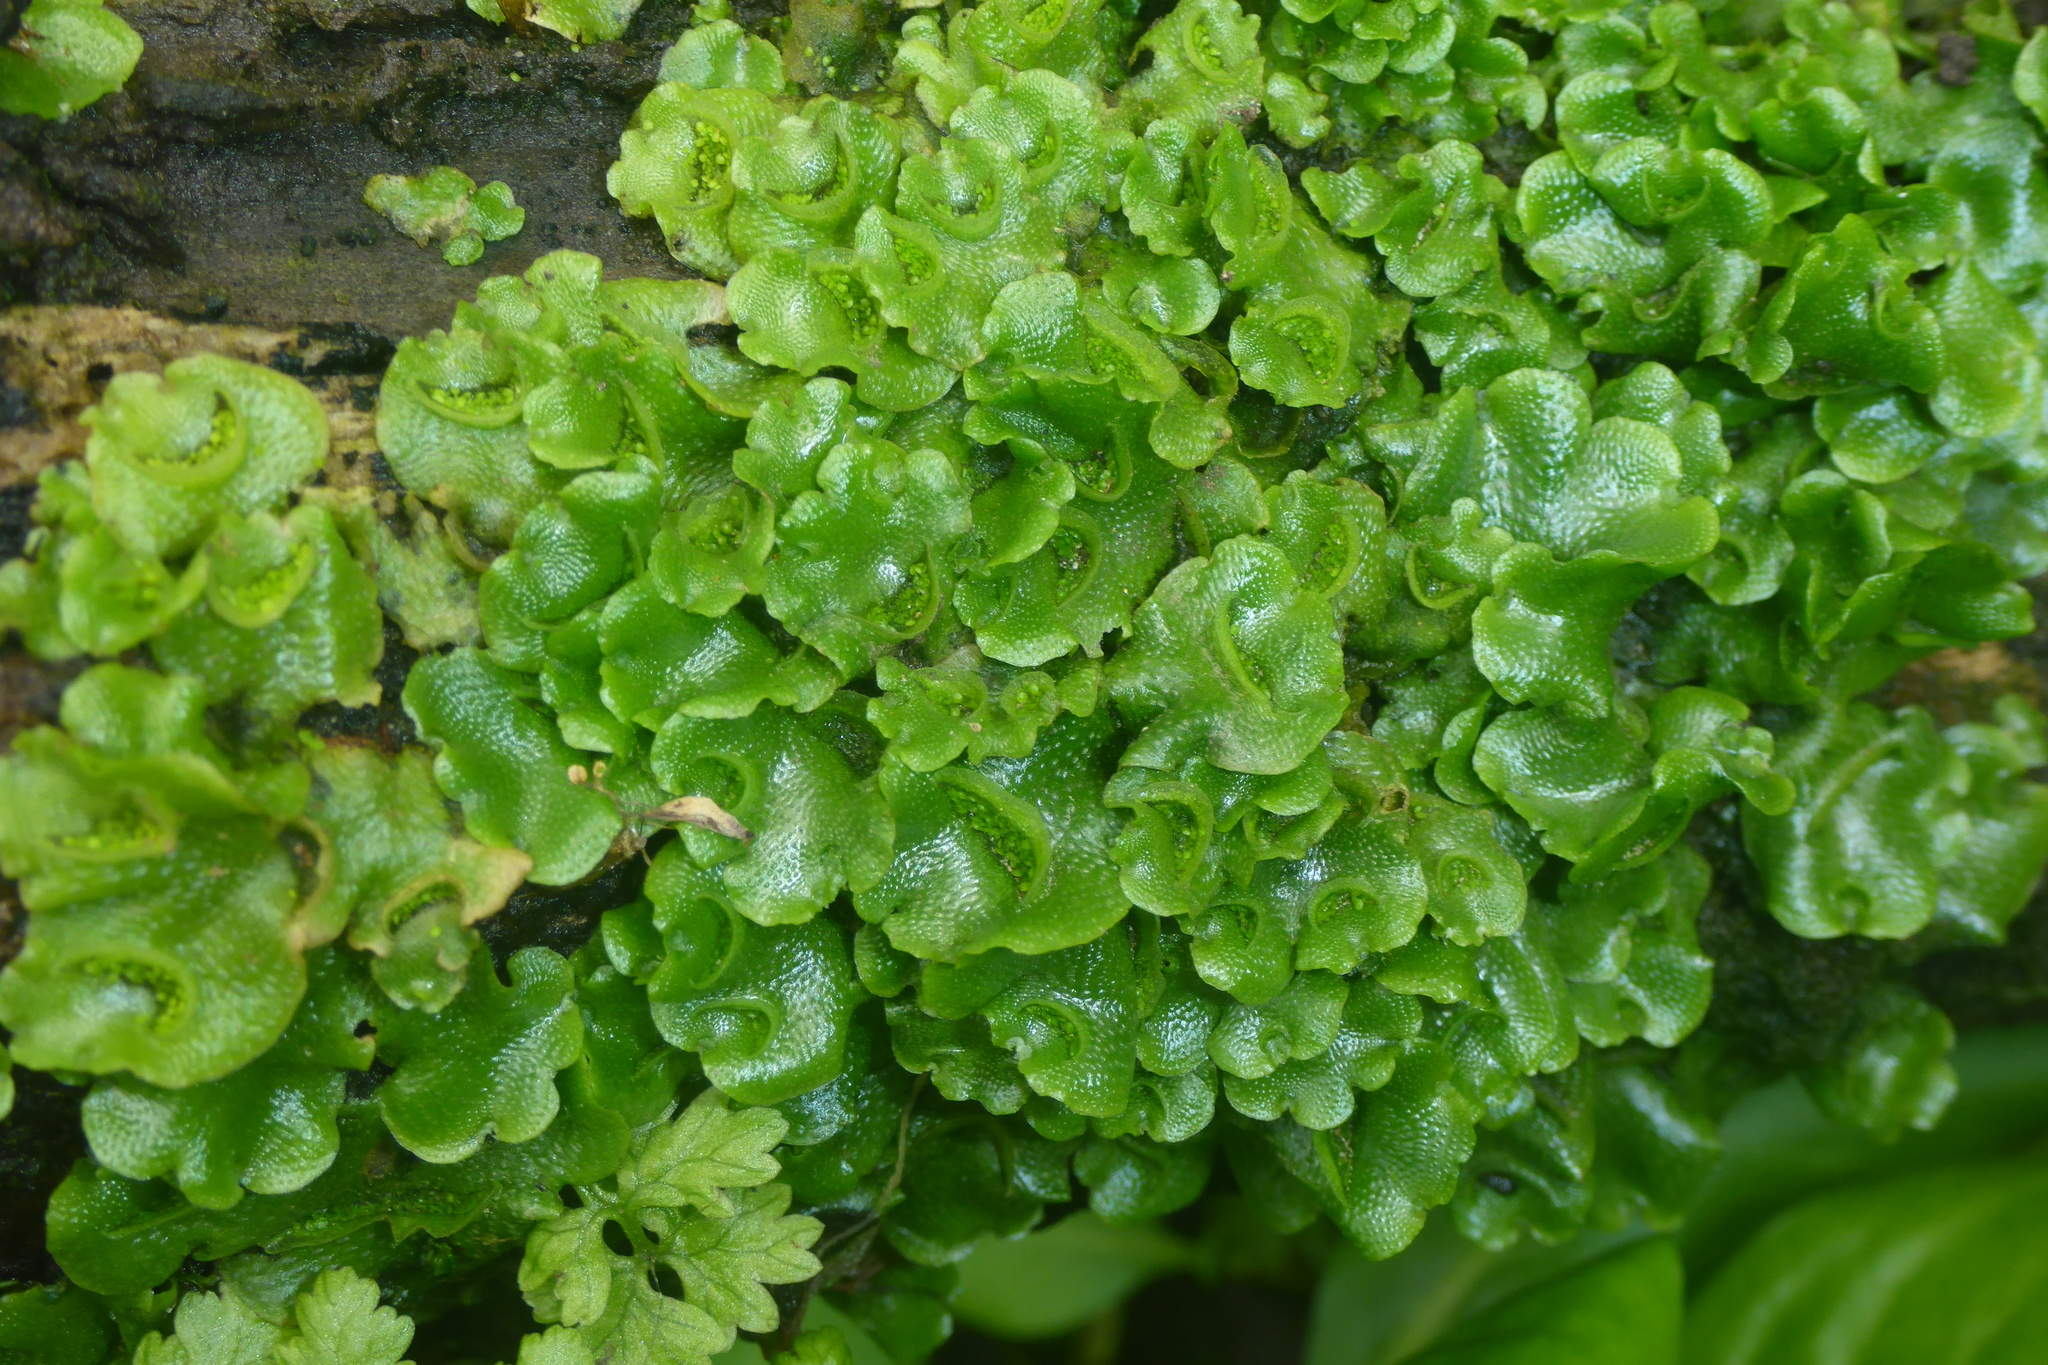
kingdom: Plantae
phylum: Marchantiophyta
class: Marchantiopsida
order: Lunulariales
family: Lunulariaceae
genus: Lunularia
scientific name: Lunularia cruciata
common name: Crescent-cup liverwort
